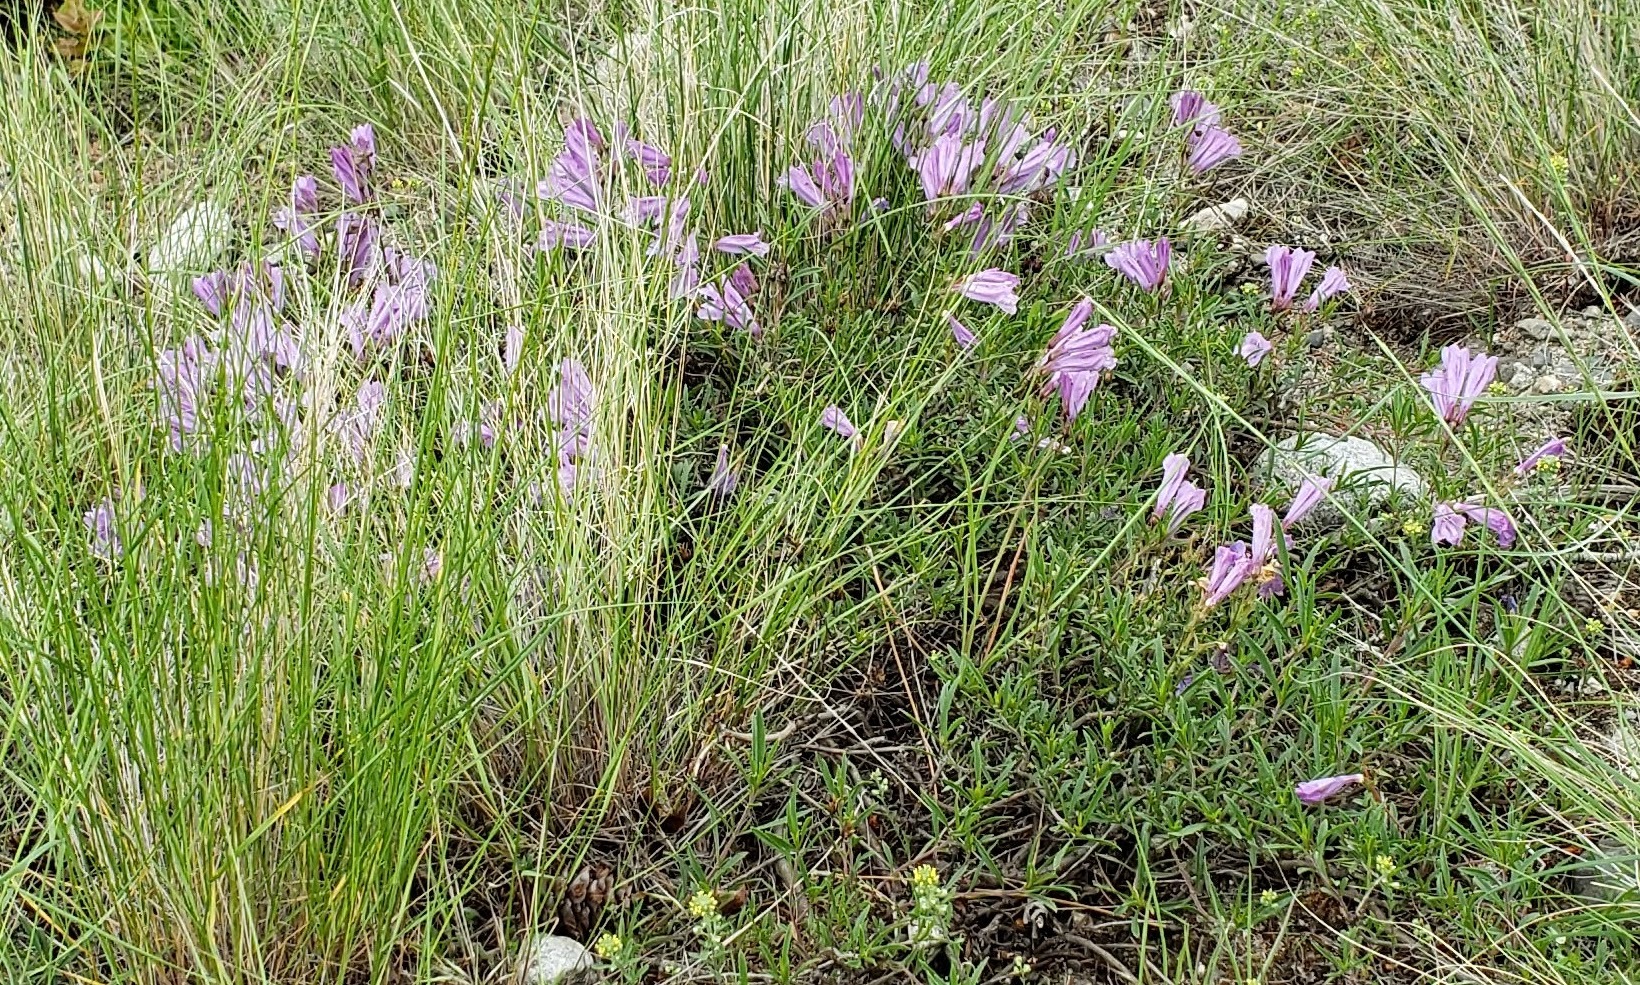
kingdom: Plantae
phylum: Tracheophyta
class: Magnoliopsida
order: Lamiales
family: Plantaginaceae
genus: Penstemon
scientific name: Penstemon fruticosus
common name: Bush penstemon
